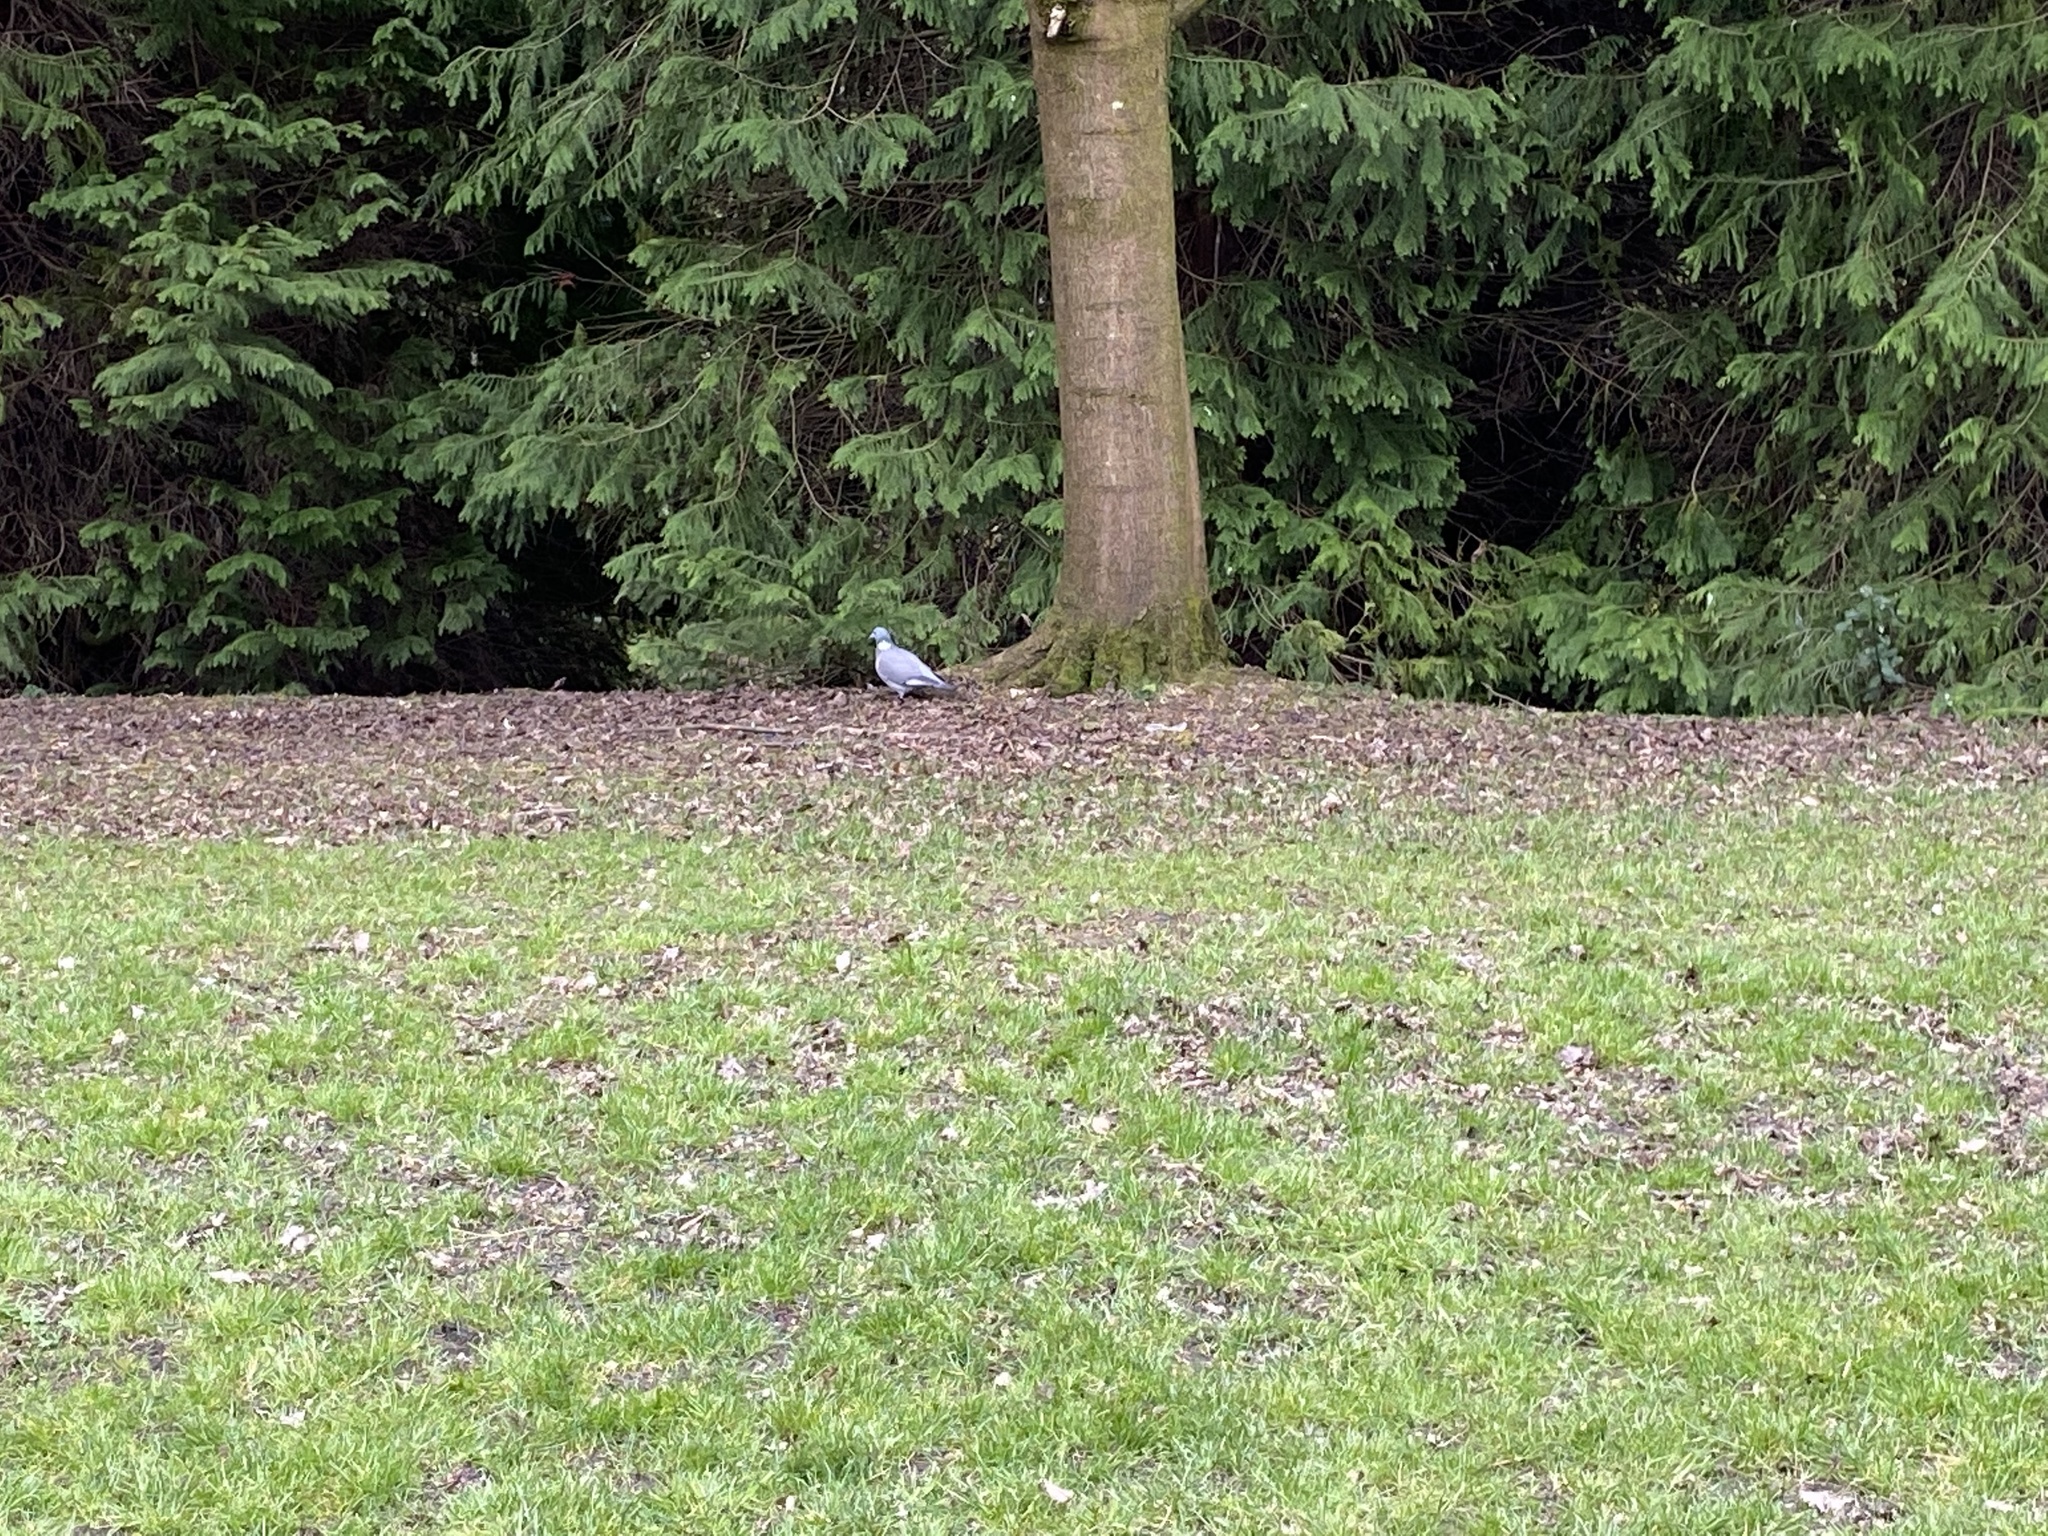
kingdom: Animalia
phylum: Chordata
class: Aves
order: Columbiformes
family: Columbidae
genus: Columba
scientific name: Columba palumbus
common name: Common wood pigeon
